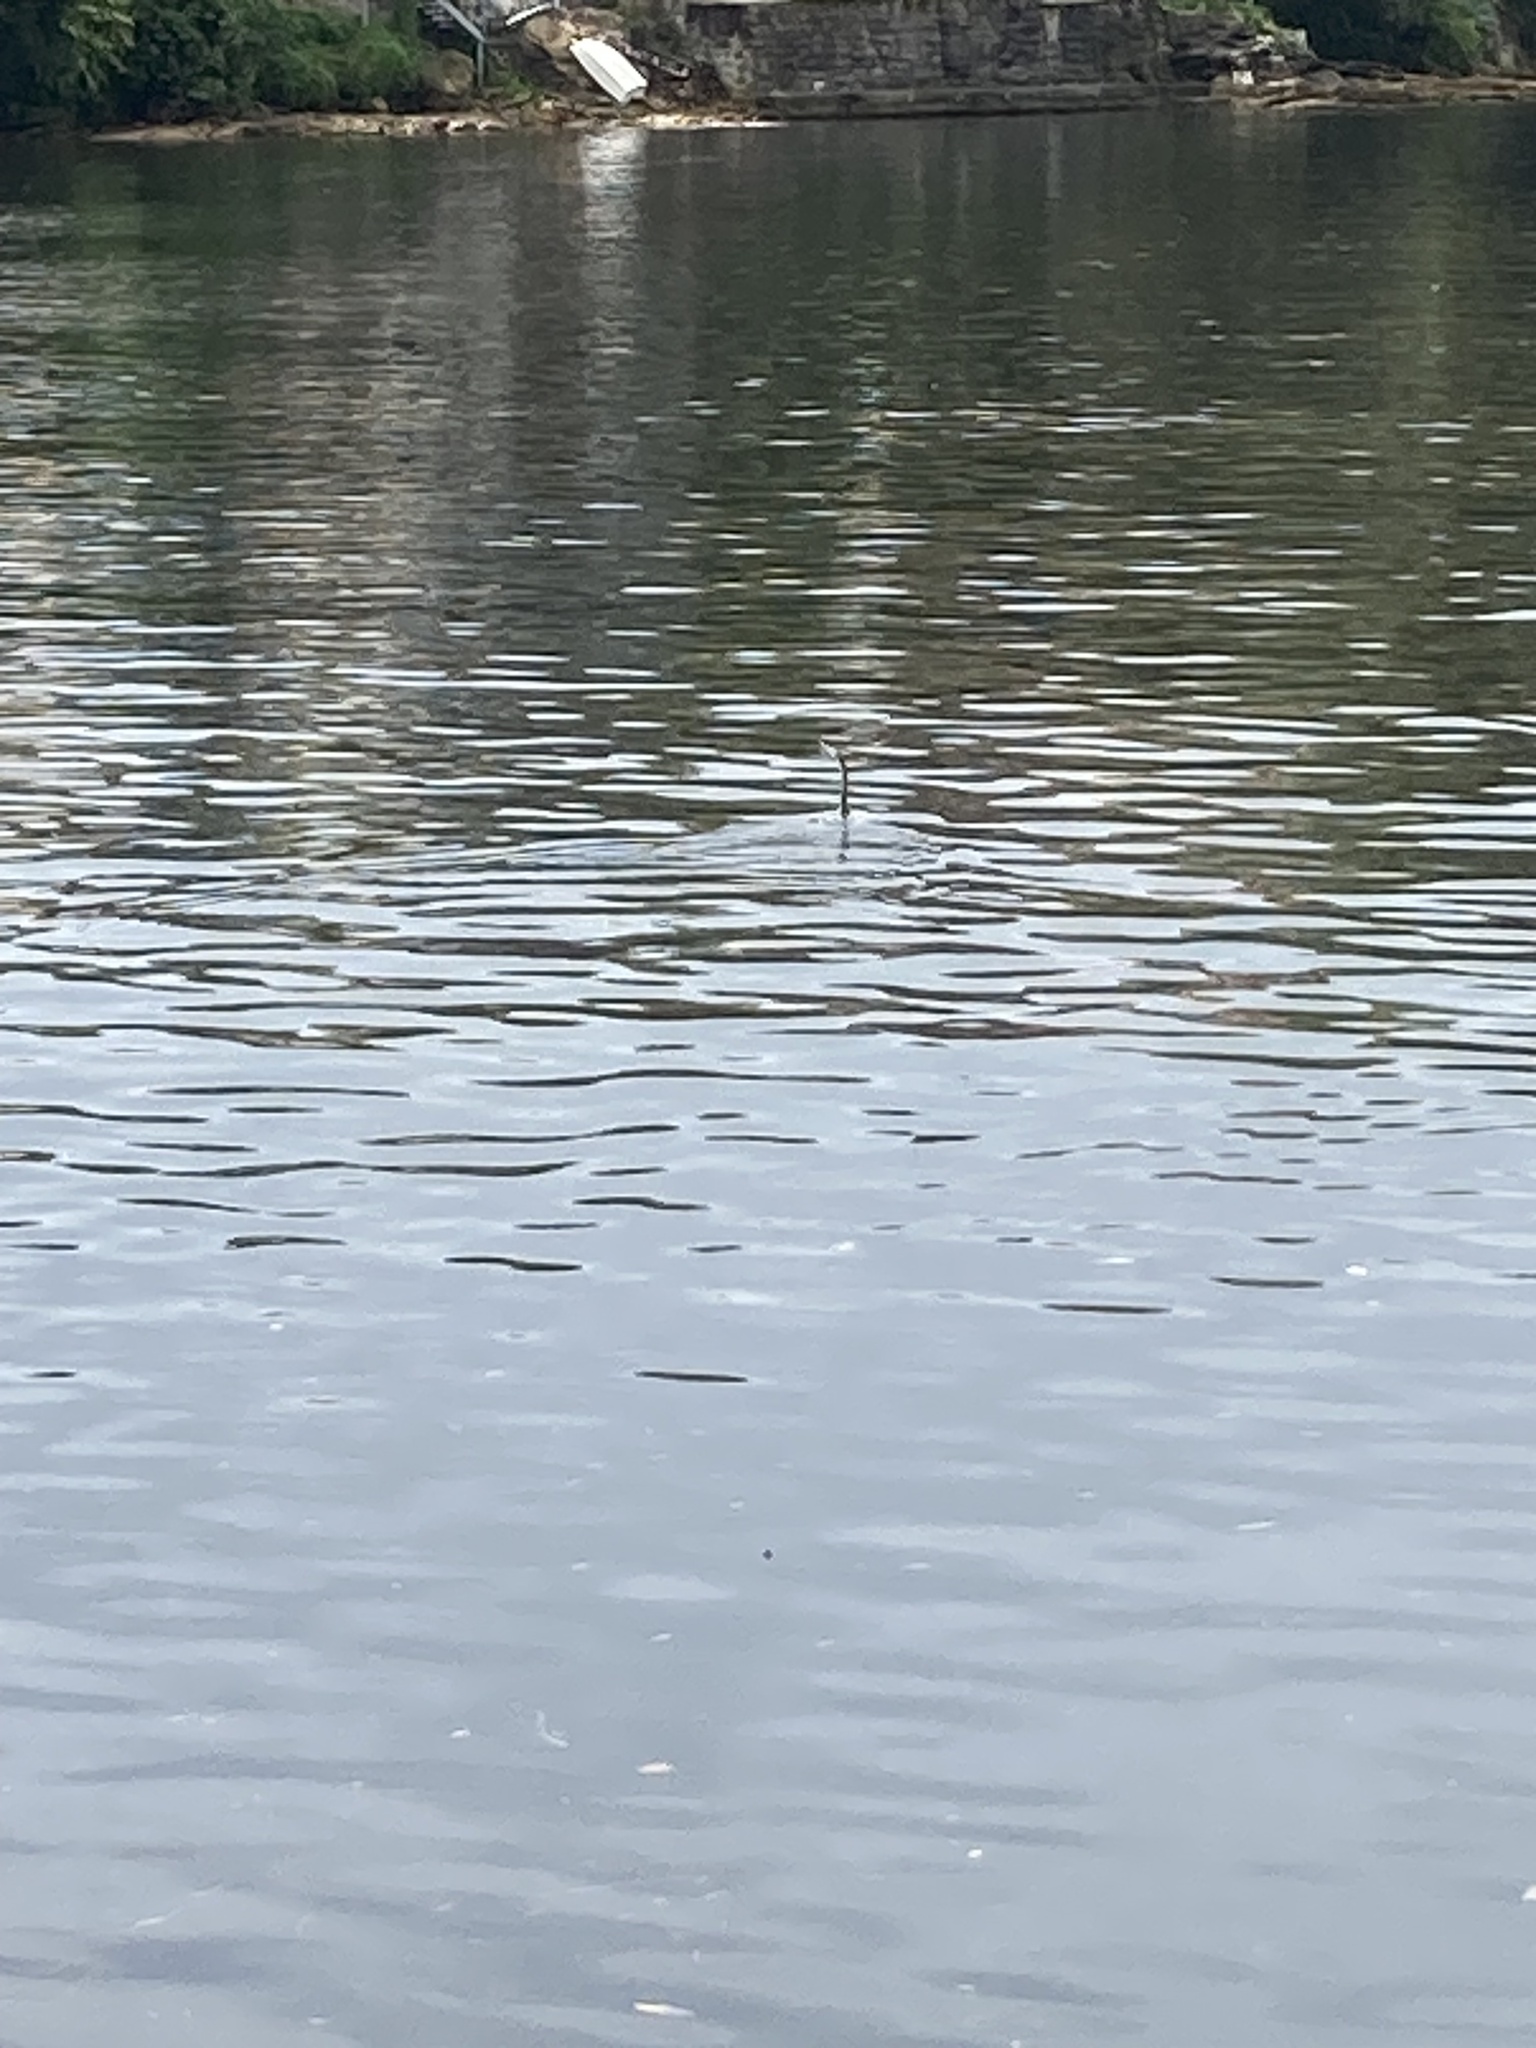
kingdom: Animalia
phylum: Chordata
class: Aves
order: Suliformes
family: Anhingidae
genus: Anhinga
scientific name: Anhinga novaehollandiae
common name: Australasian darter
